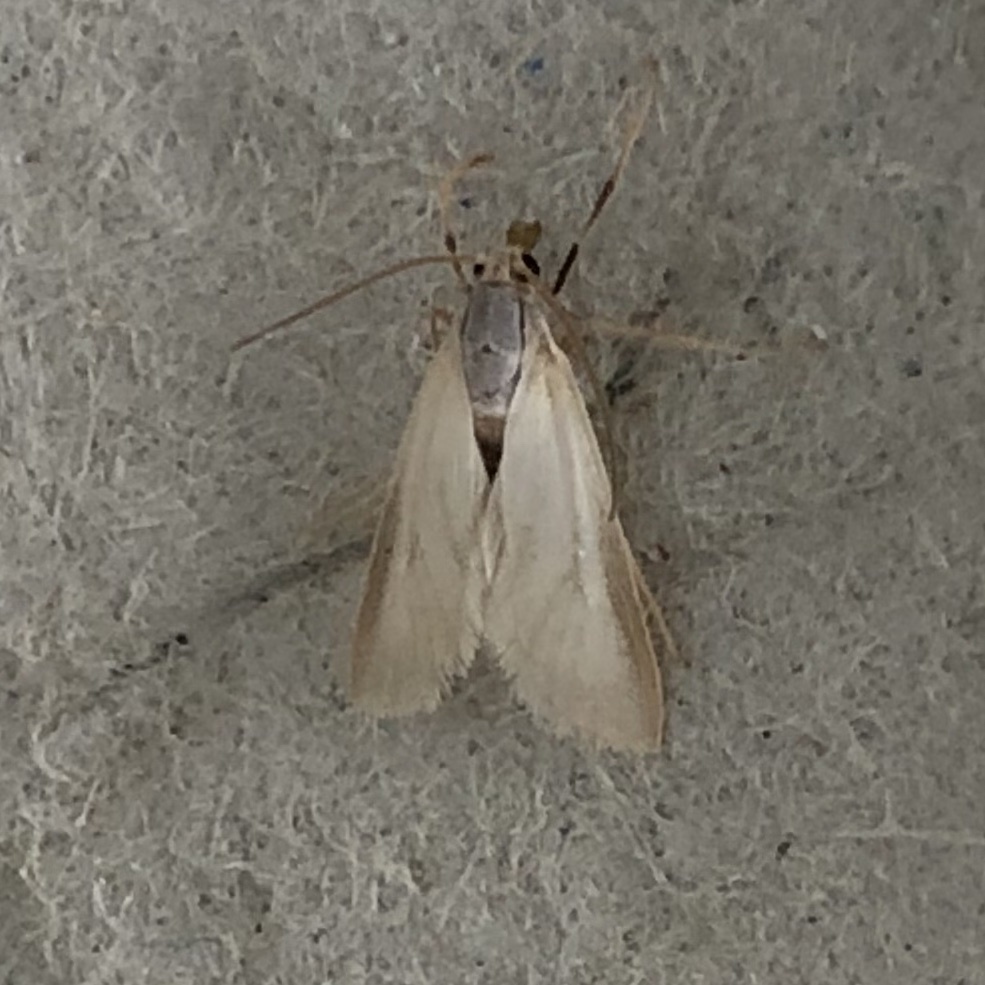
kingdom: Animalia
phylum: Arthropoda
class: Insecta
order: Lepidoptera
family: Crambidae
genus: Acentria
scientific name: Acentria ephemerella
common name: European water moth
